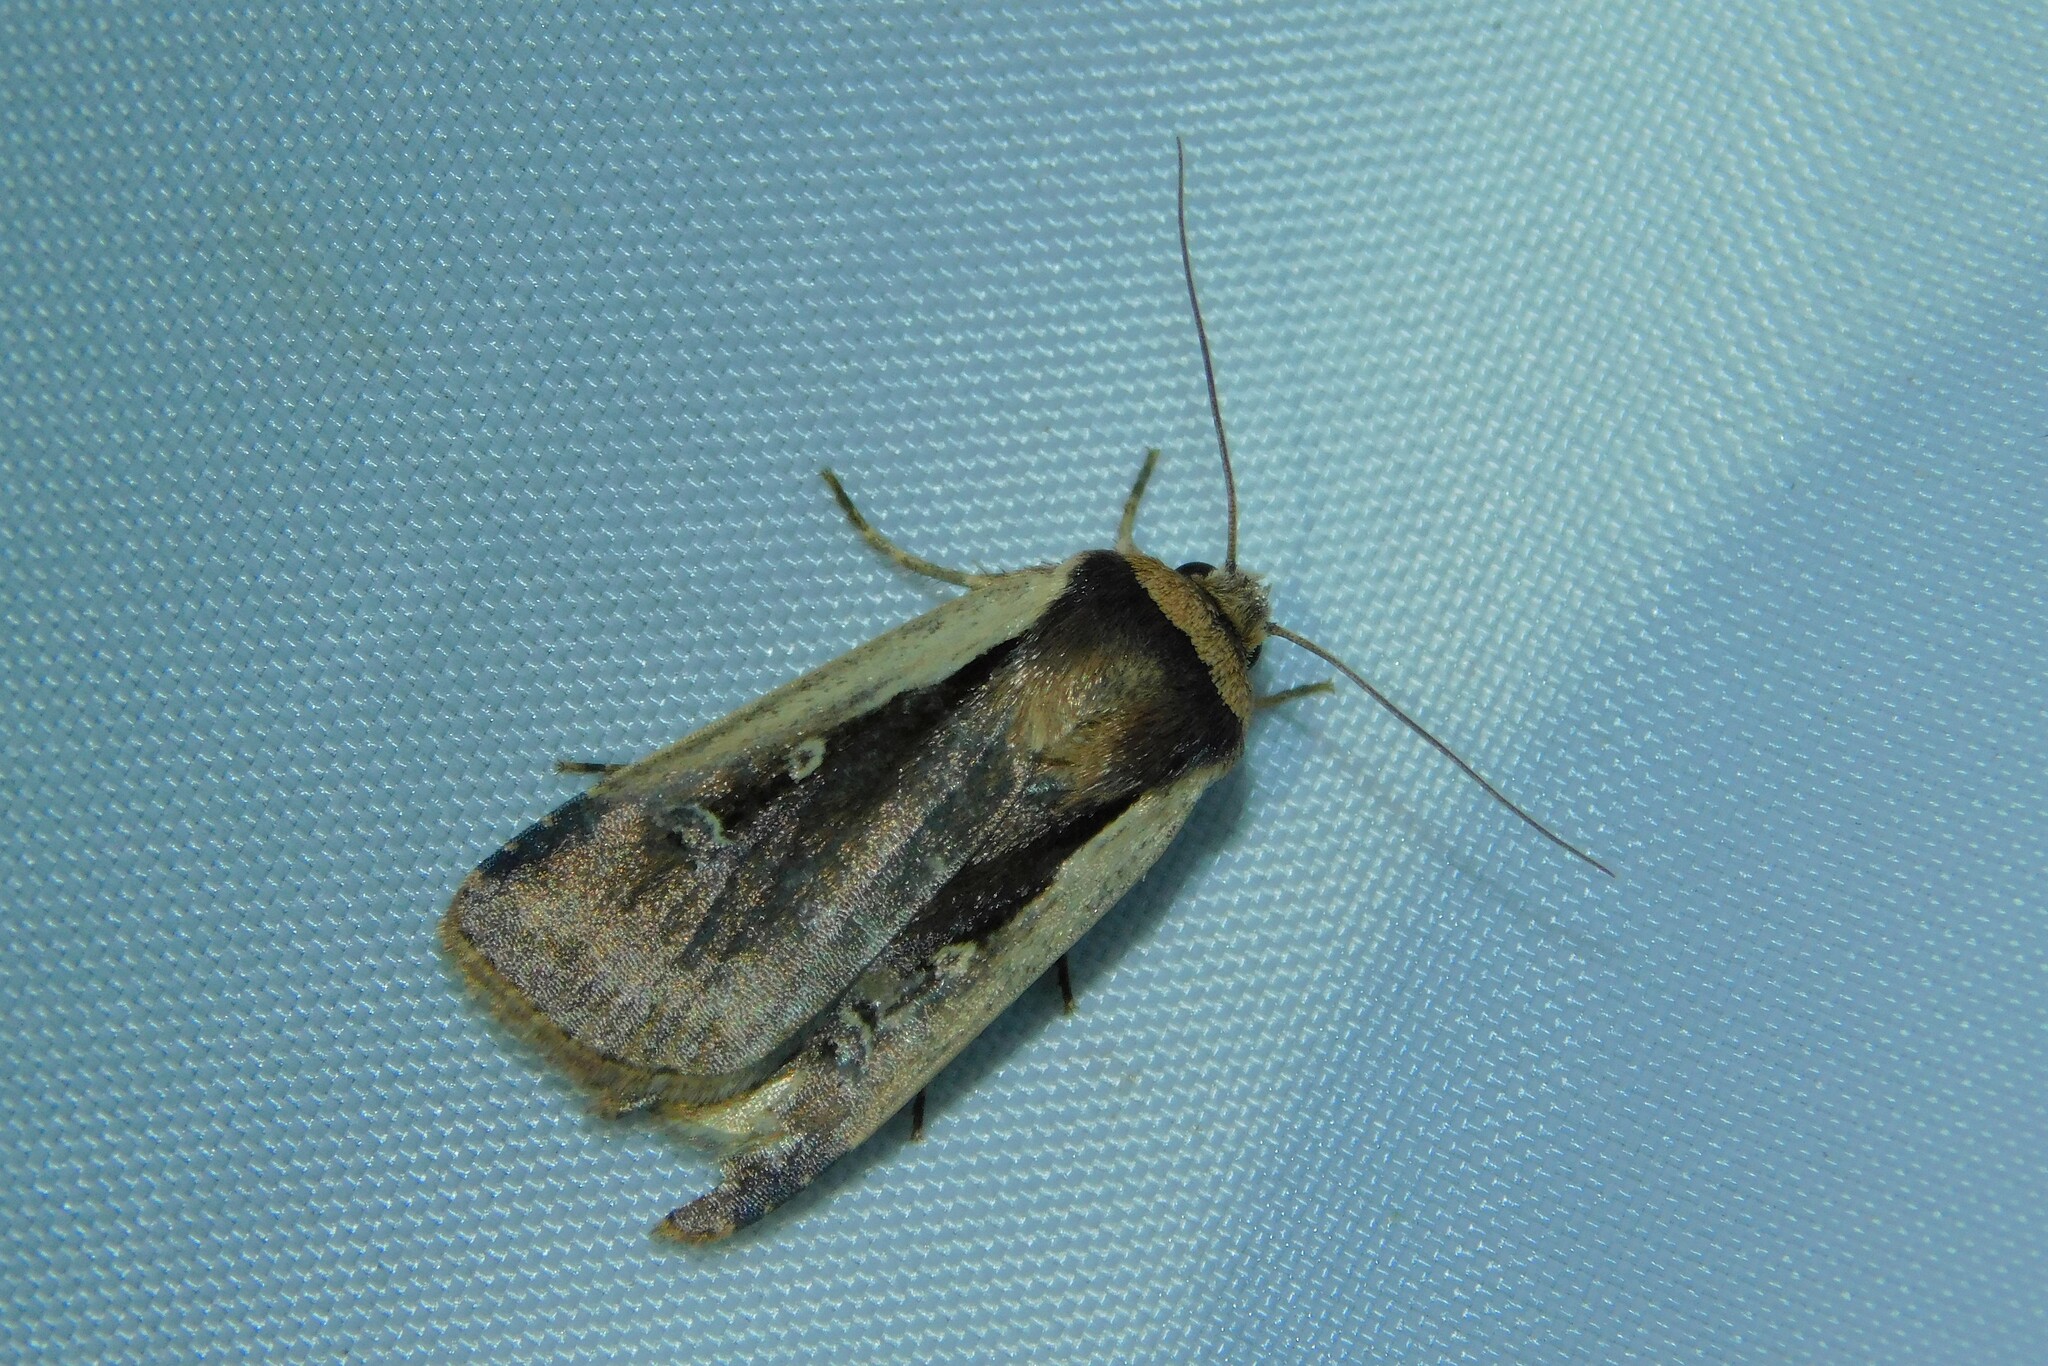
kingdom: Animalia
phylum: Arthropoda
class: Insecta
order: Lepidoptera
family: Noctuidae
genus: Ochropleura
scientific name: Ochropleura plecta
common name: Flame shoulder
